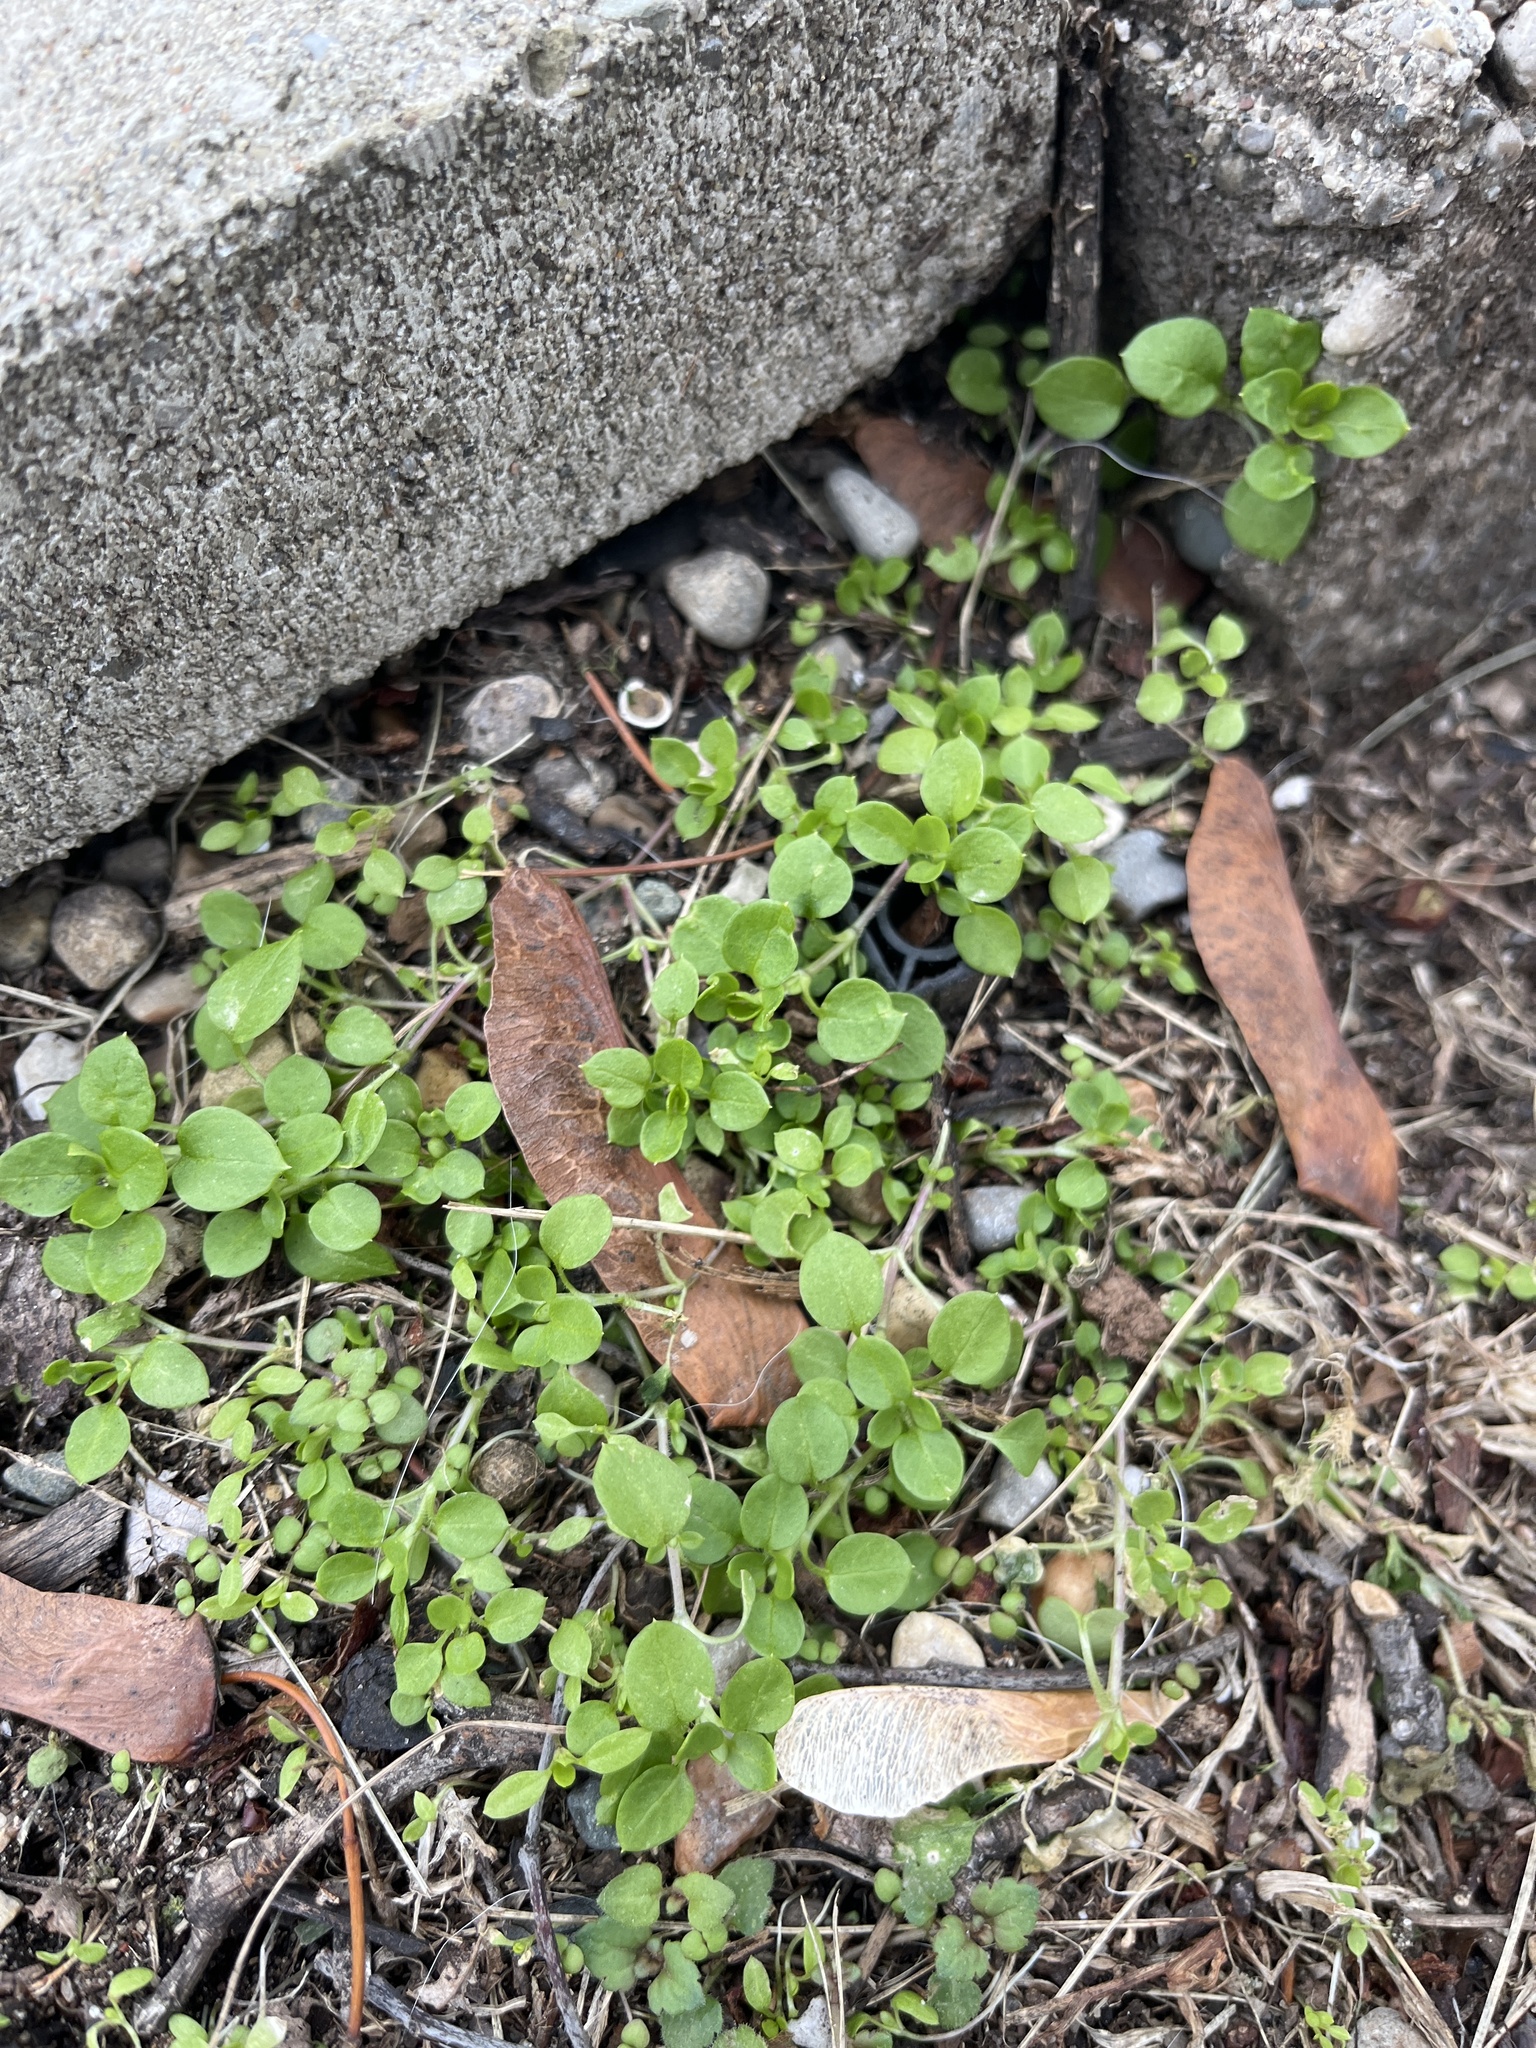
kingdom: Plantae
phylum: Tracheophyta
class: Magnoliopsida
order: Caryophyllales
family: Caryophyllaceae
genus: Stellaria
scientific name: Stellaria media
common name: Common chickweed
